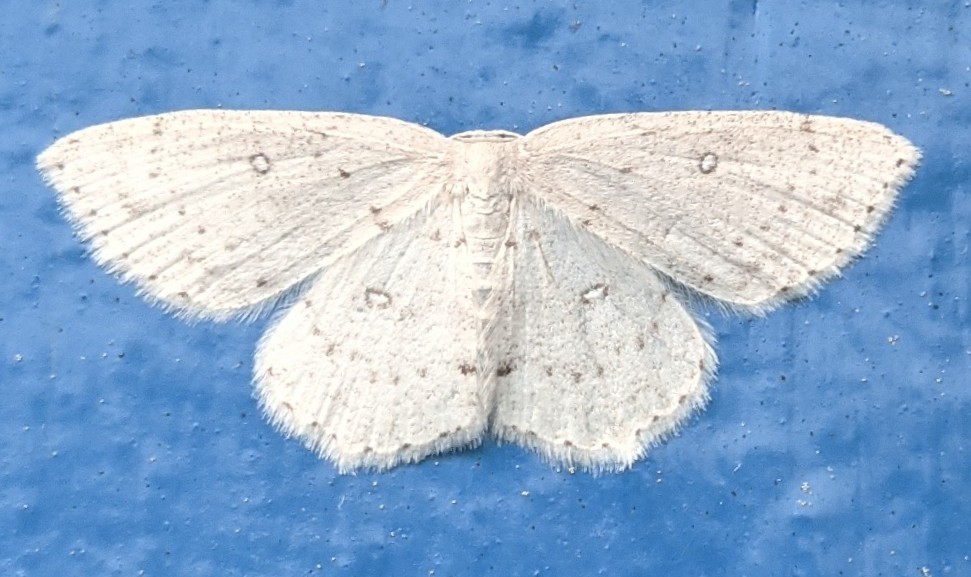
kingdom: Animalia
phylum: Arthropoda
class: Insecta
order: Lepidoptera
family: Geometridae
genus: Cyclophora
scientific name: Cyclophora pendulinaria
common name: Sweet fern geometer
